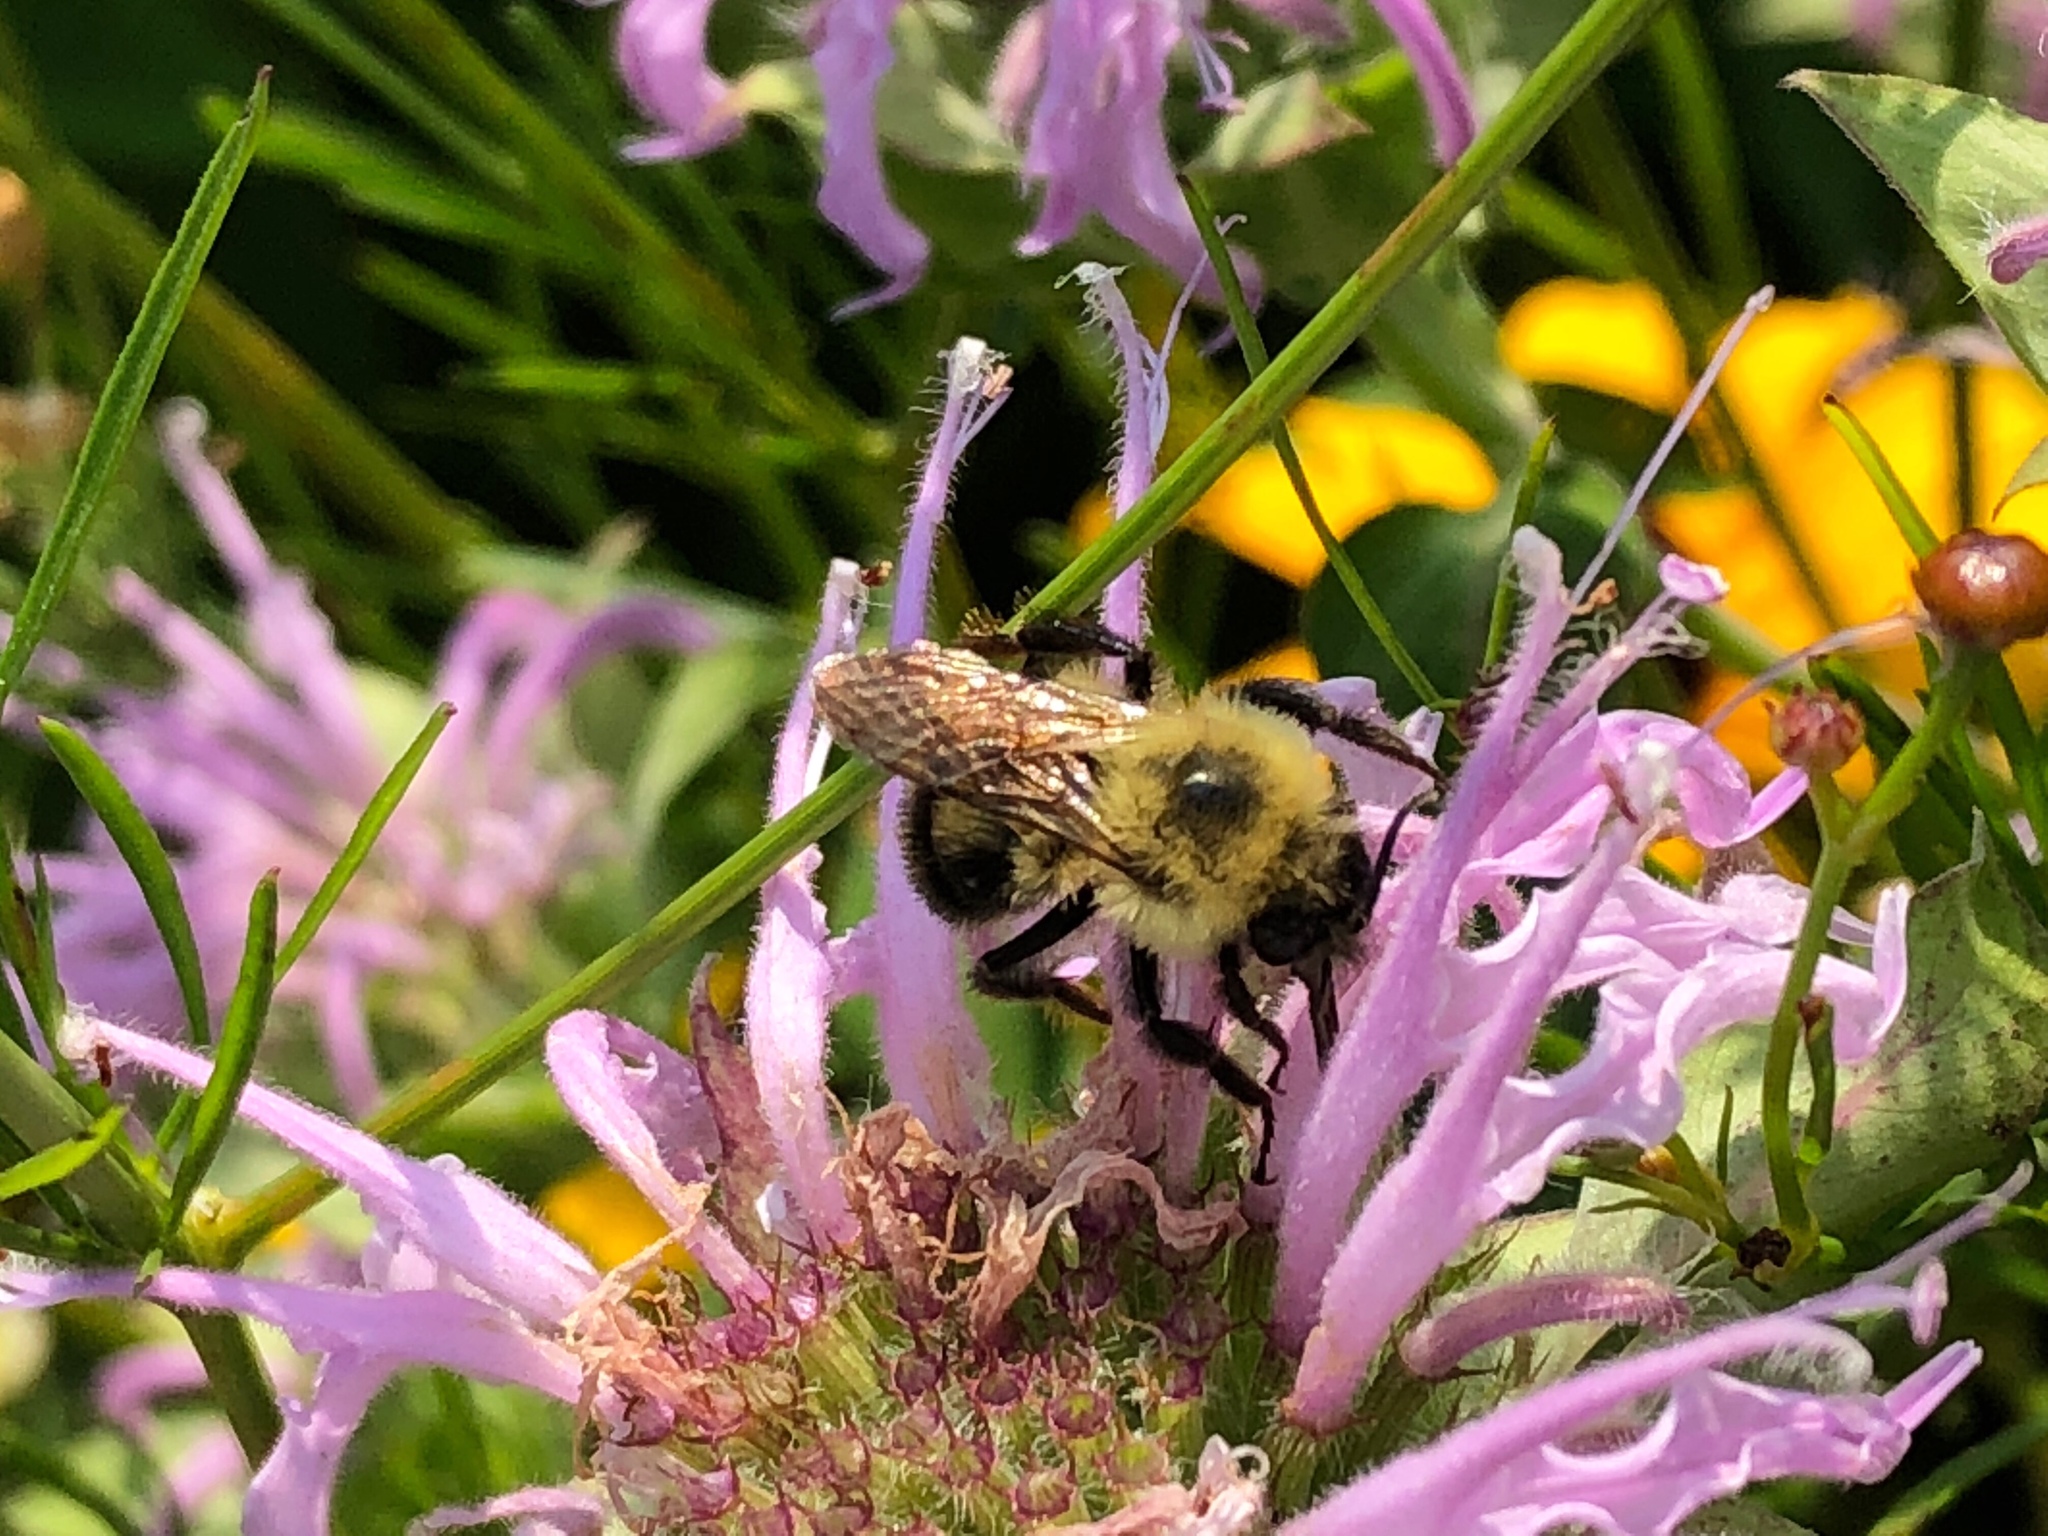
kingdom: Animalia
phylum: Arthropoda
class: Insecta
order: Hymenoptera
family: Apidae
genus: Bombus
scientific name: Bombus bimaculatus
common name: Two-spotted bumble bee
